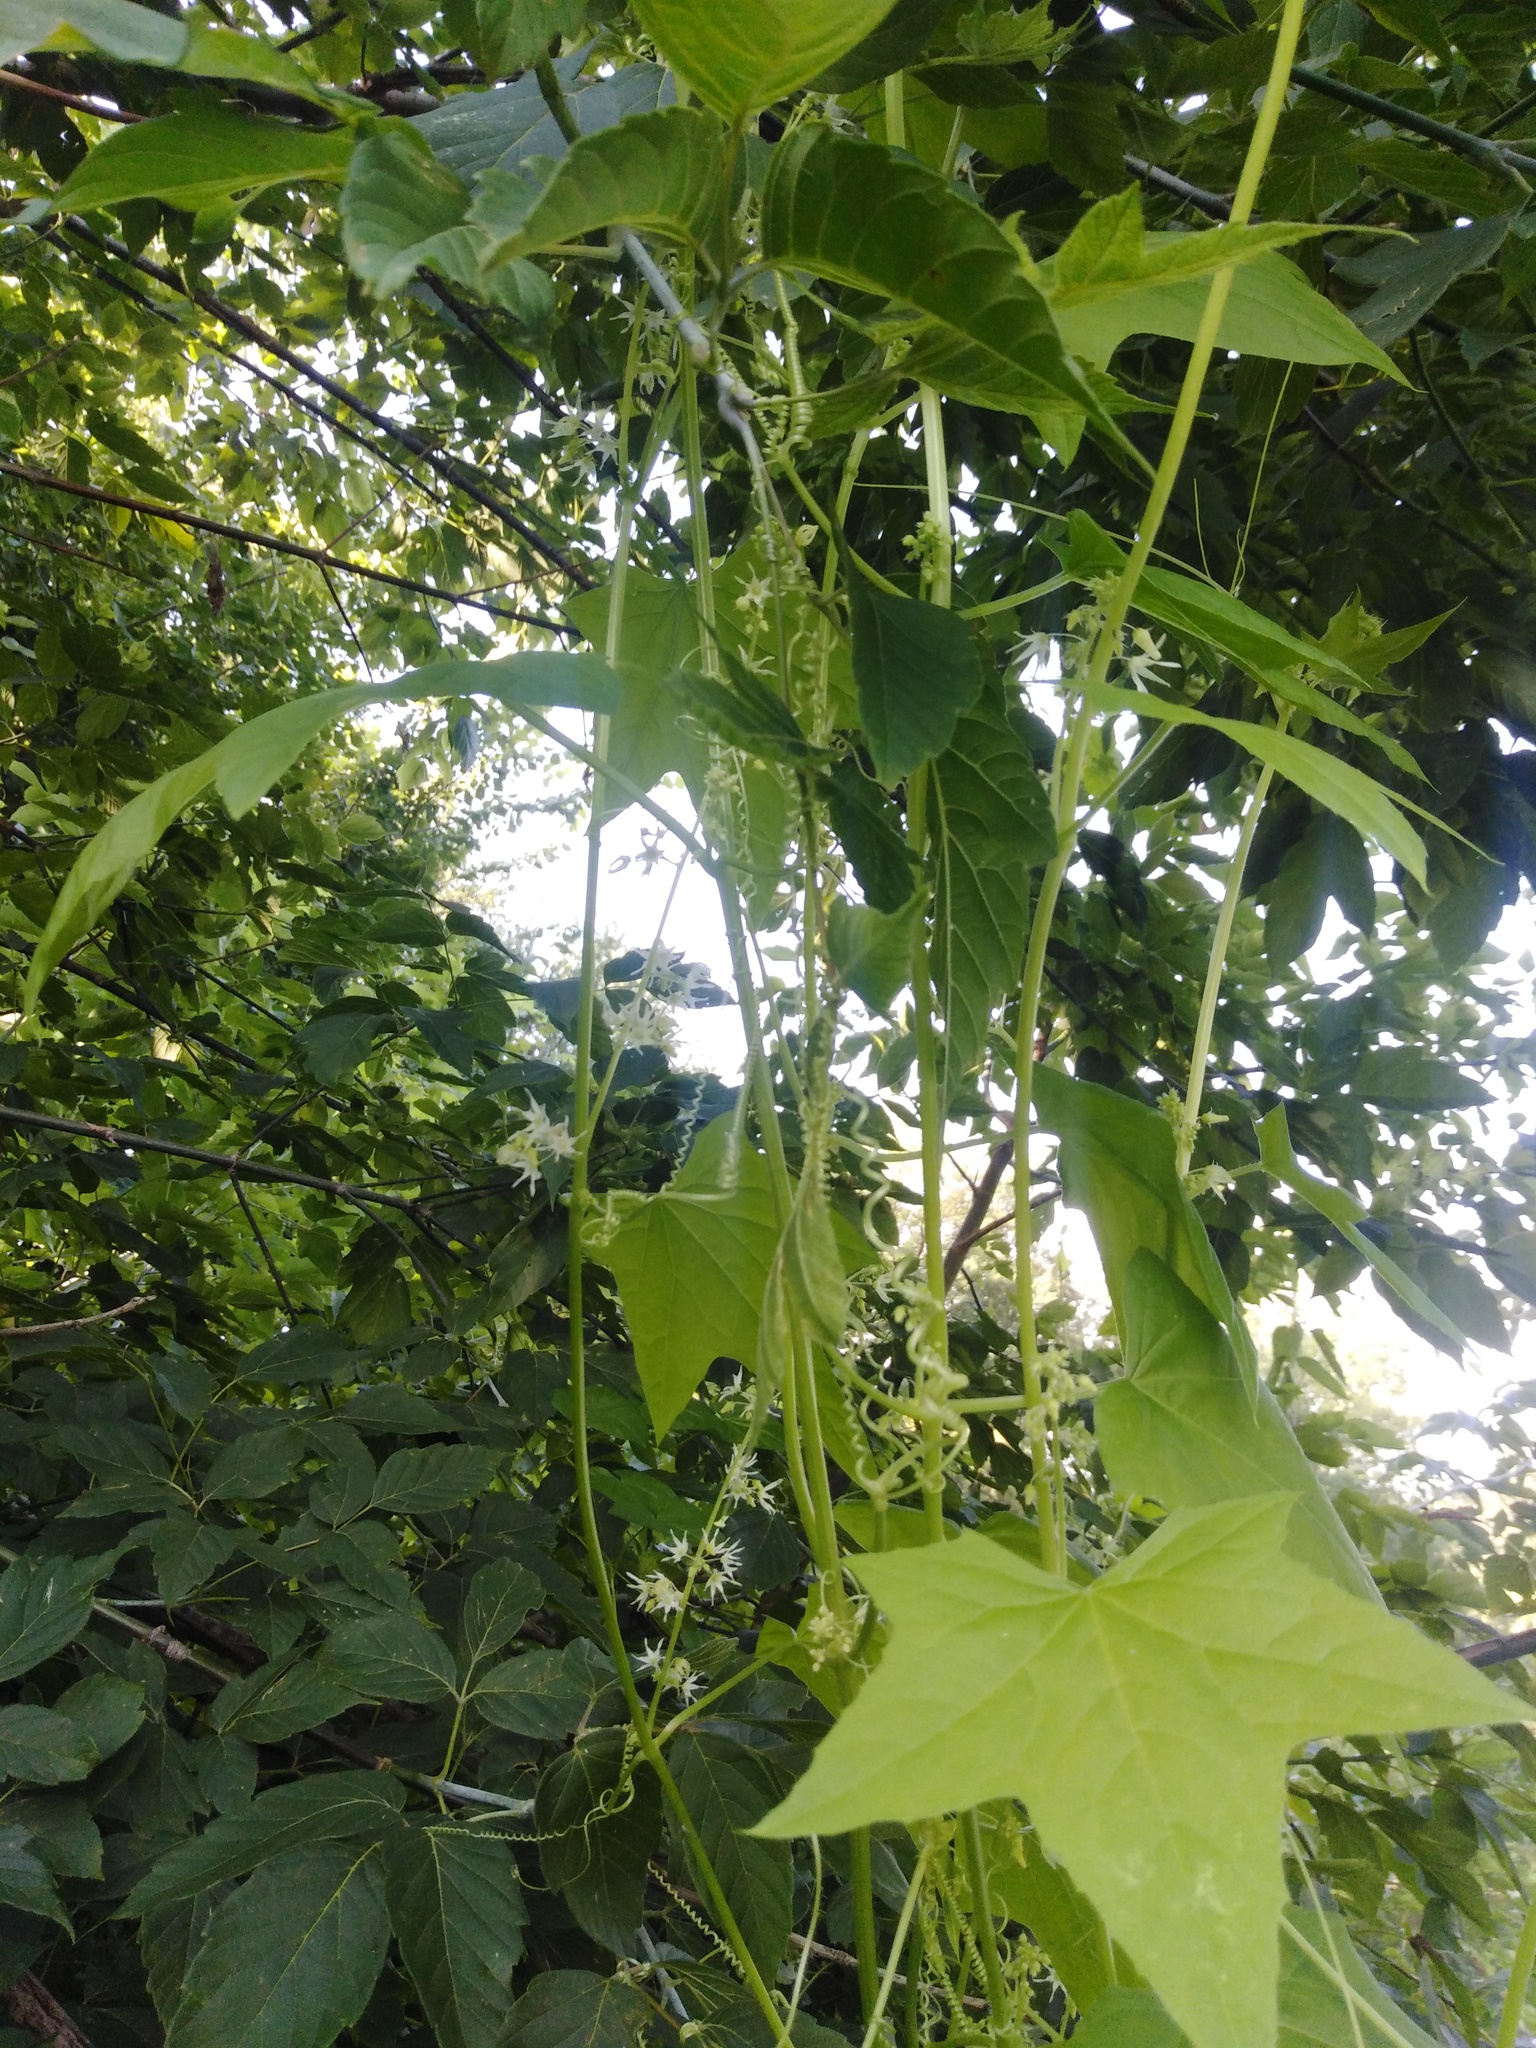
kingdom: Plantae
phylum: Tracheophyta
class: Magnoliopsida
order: Cucurbitales
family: Cucurbitaceae
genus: Echinocystis
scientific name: Echinocystis lobata
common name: Wild cucumber
